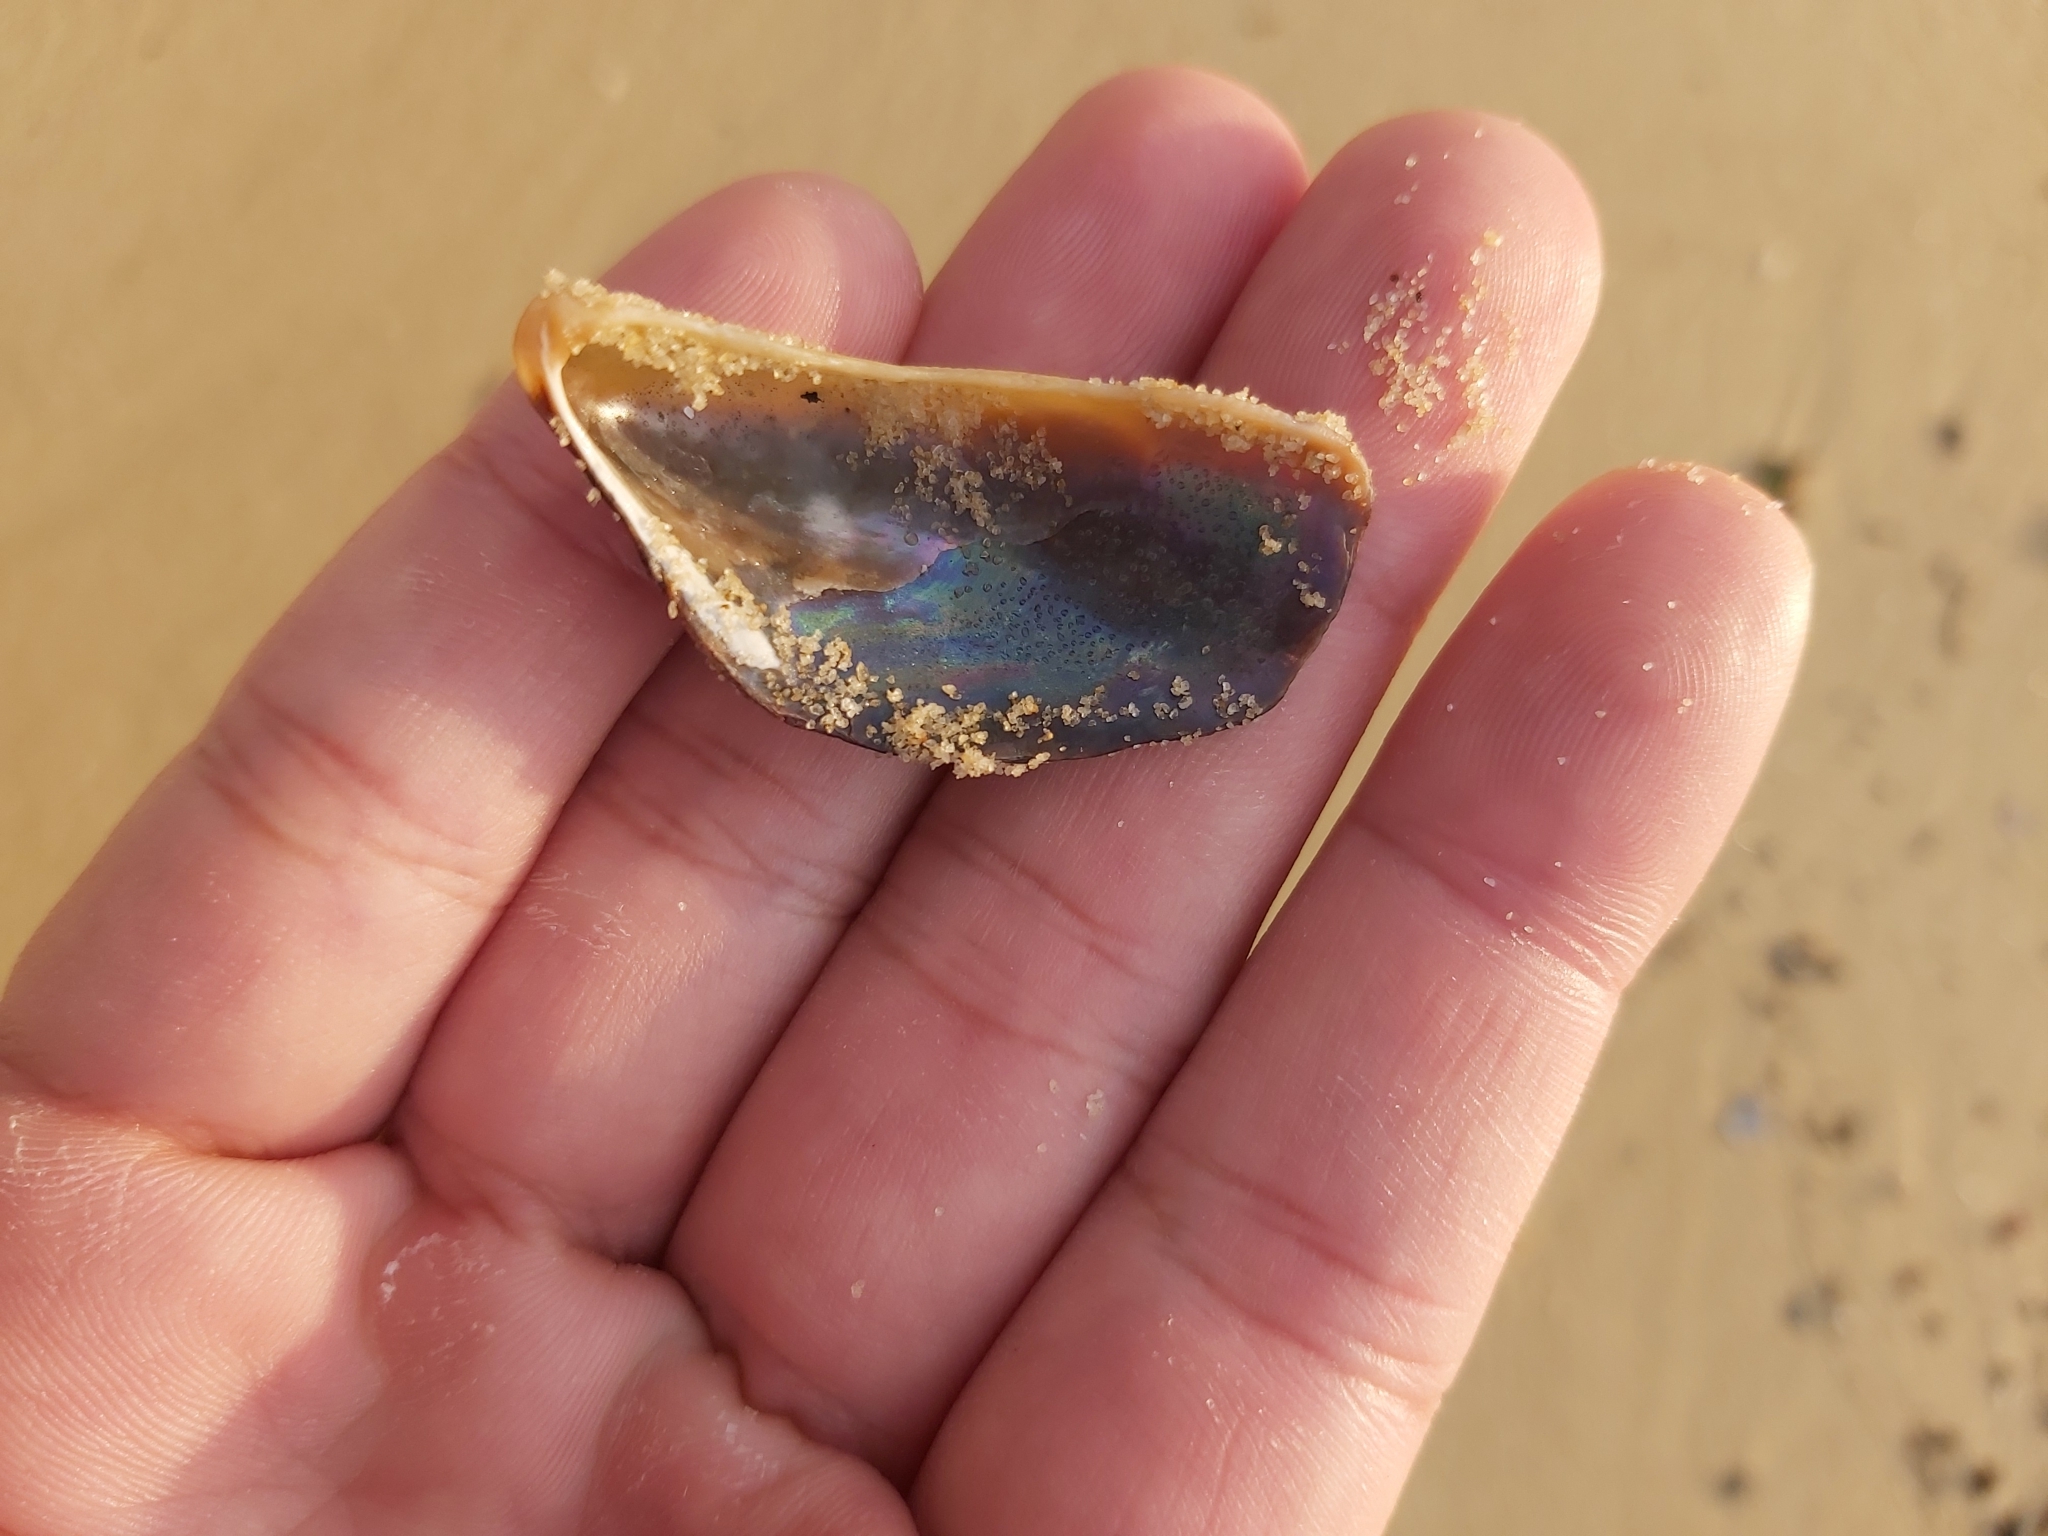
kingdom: Animalia
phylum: Mollusca
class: Bivalvia
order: Mytilida
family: Mytilidae
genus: Trichomya
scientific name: Trichomya hirsuta
